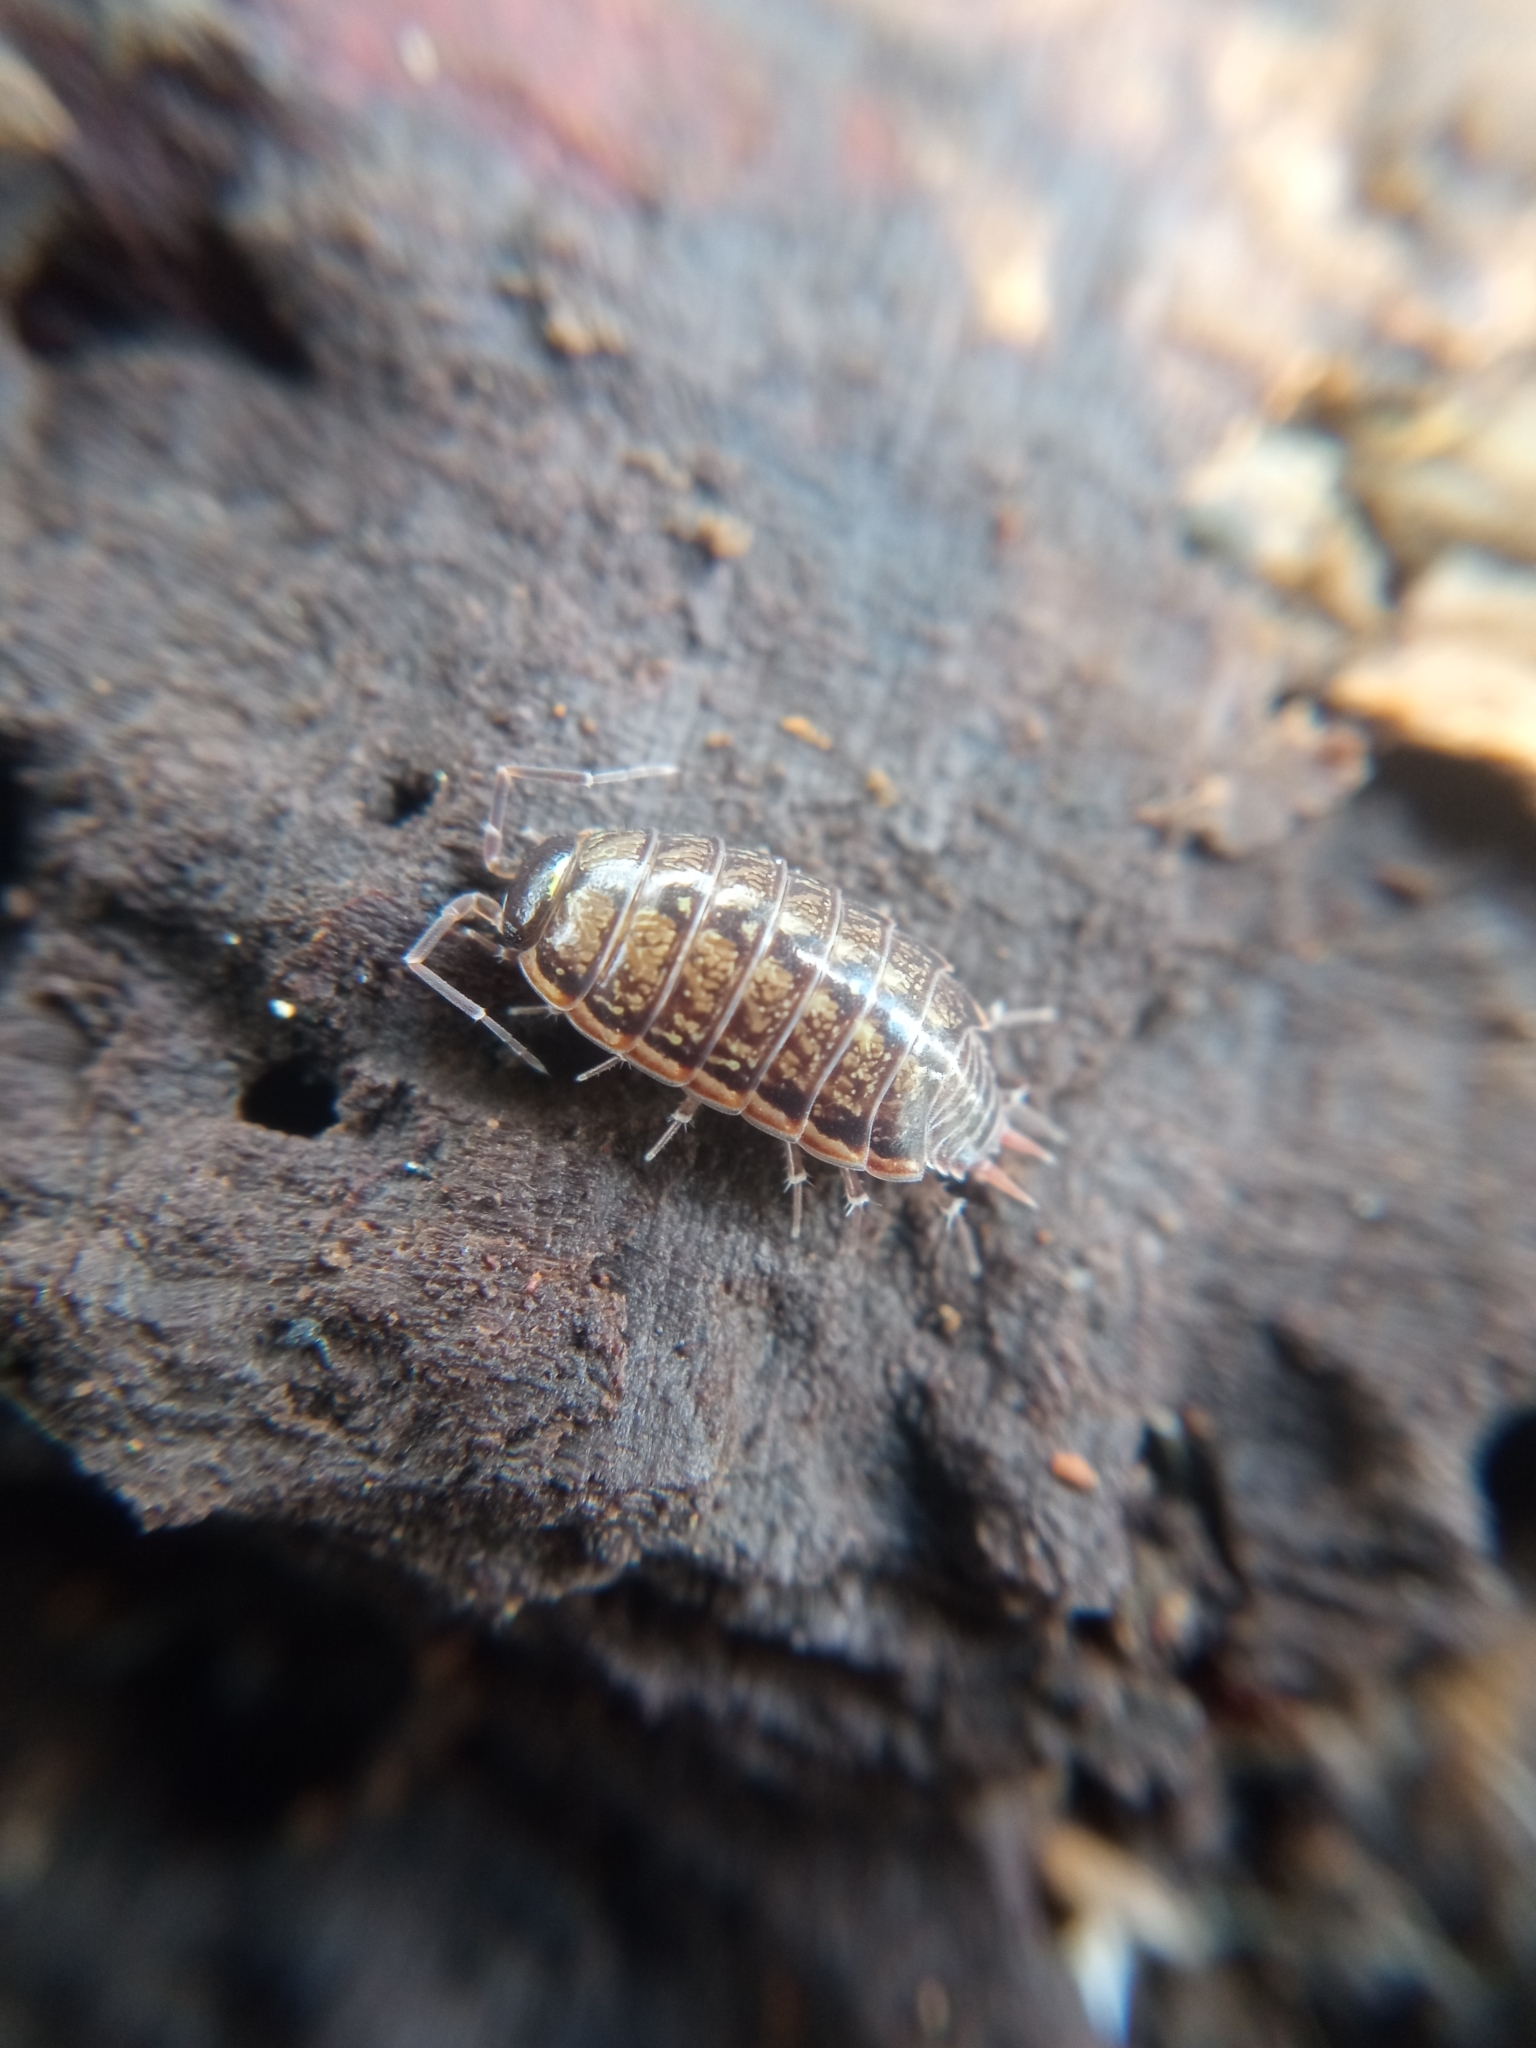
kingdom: Animalia
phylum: Arthropoda
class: Malacostraca
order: Isopoda
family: Philosciidae
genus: Philoscia
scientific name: Philoscia muscorum
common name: Common striped woodlouse
